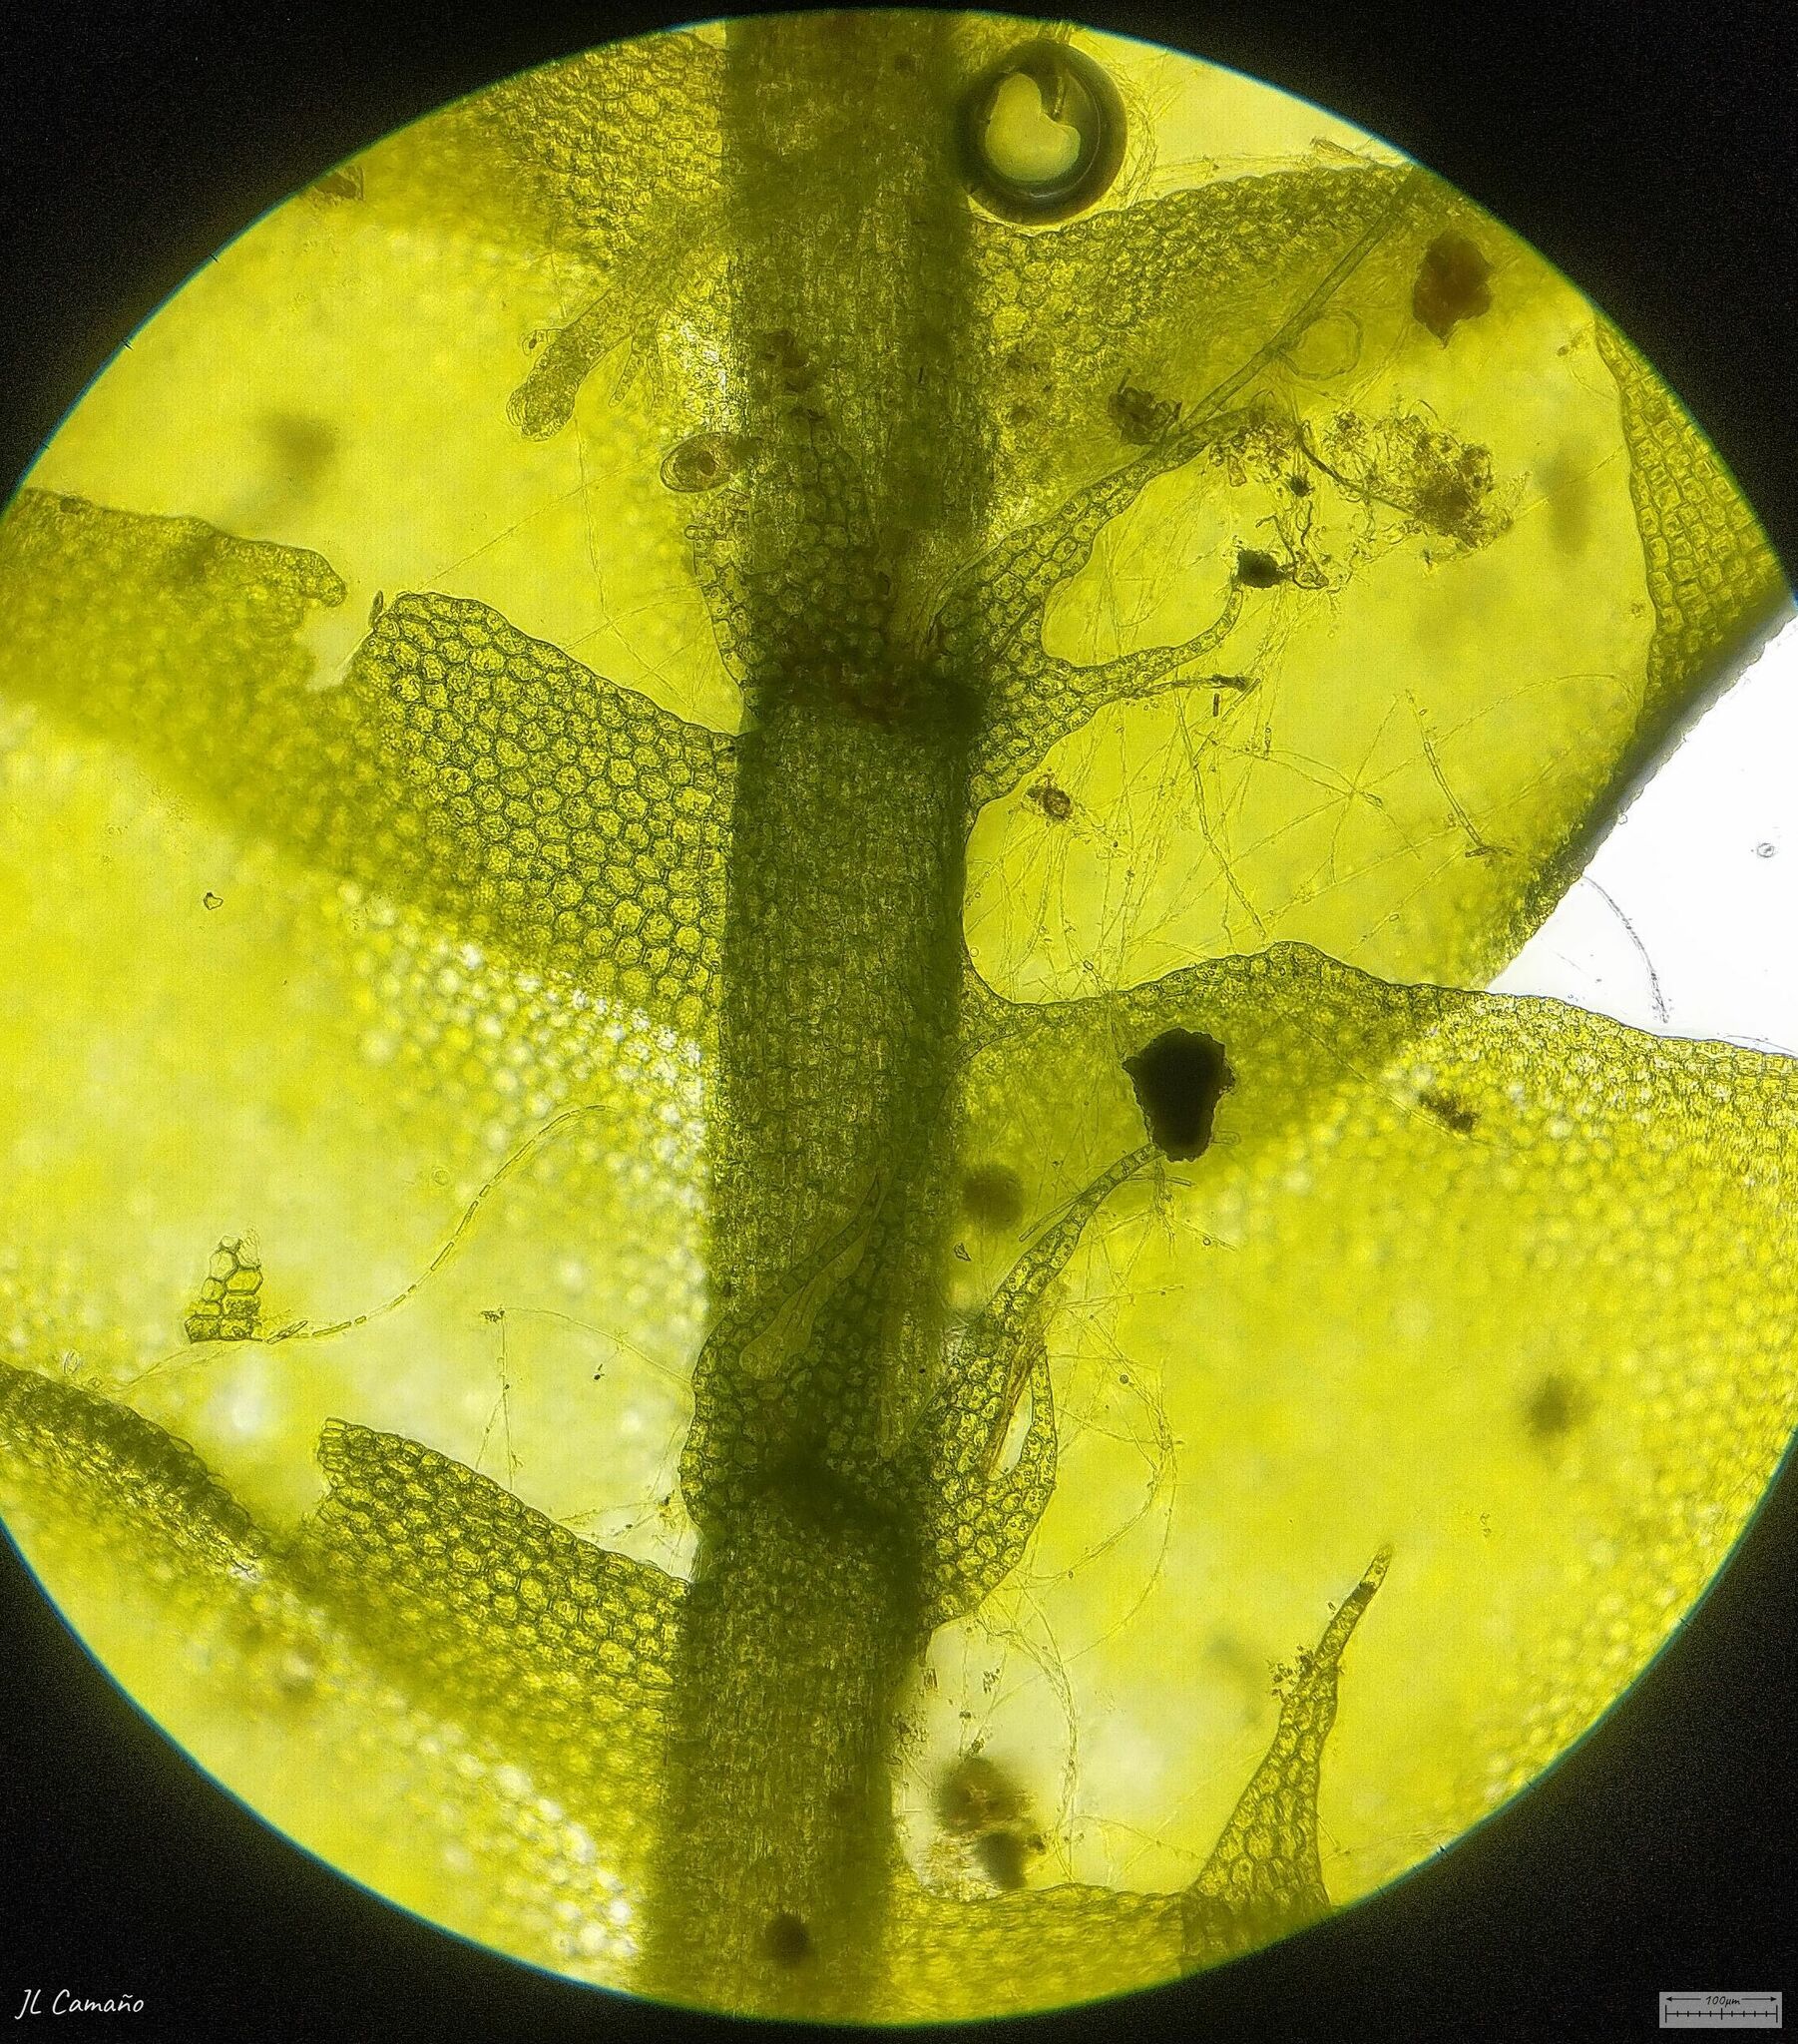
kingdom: Plantae
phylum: Marchantiophyta
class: Jungermanniopsida
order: Jungermanniales
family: Lophocoleaceae
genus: Lophocolea
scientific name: Lophocolea bidentata
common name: Bifid crestwort
